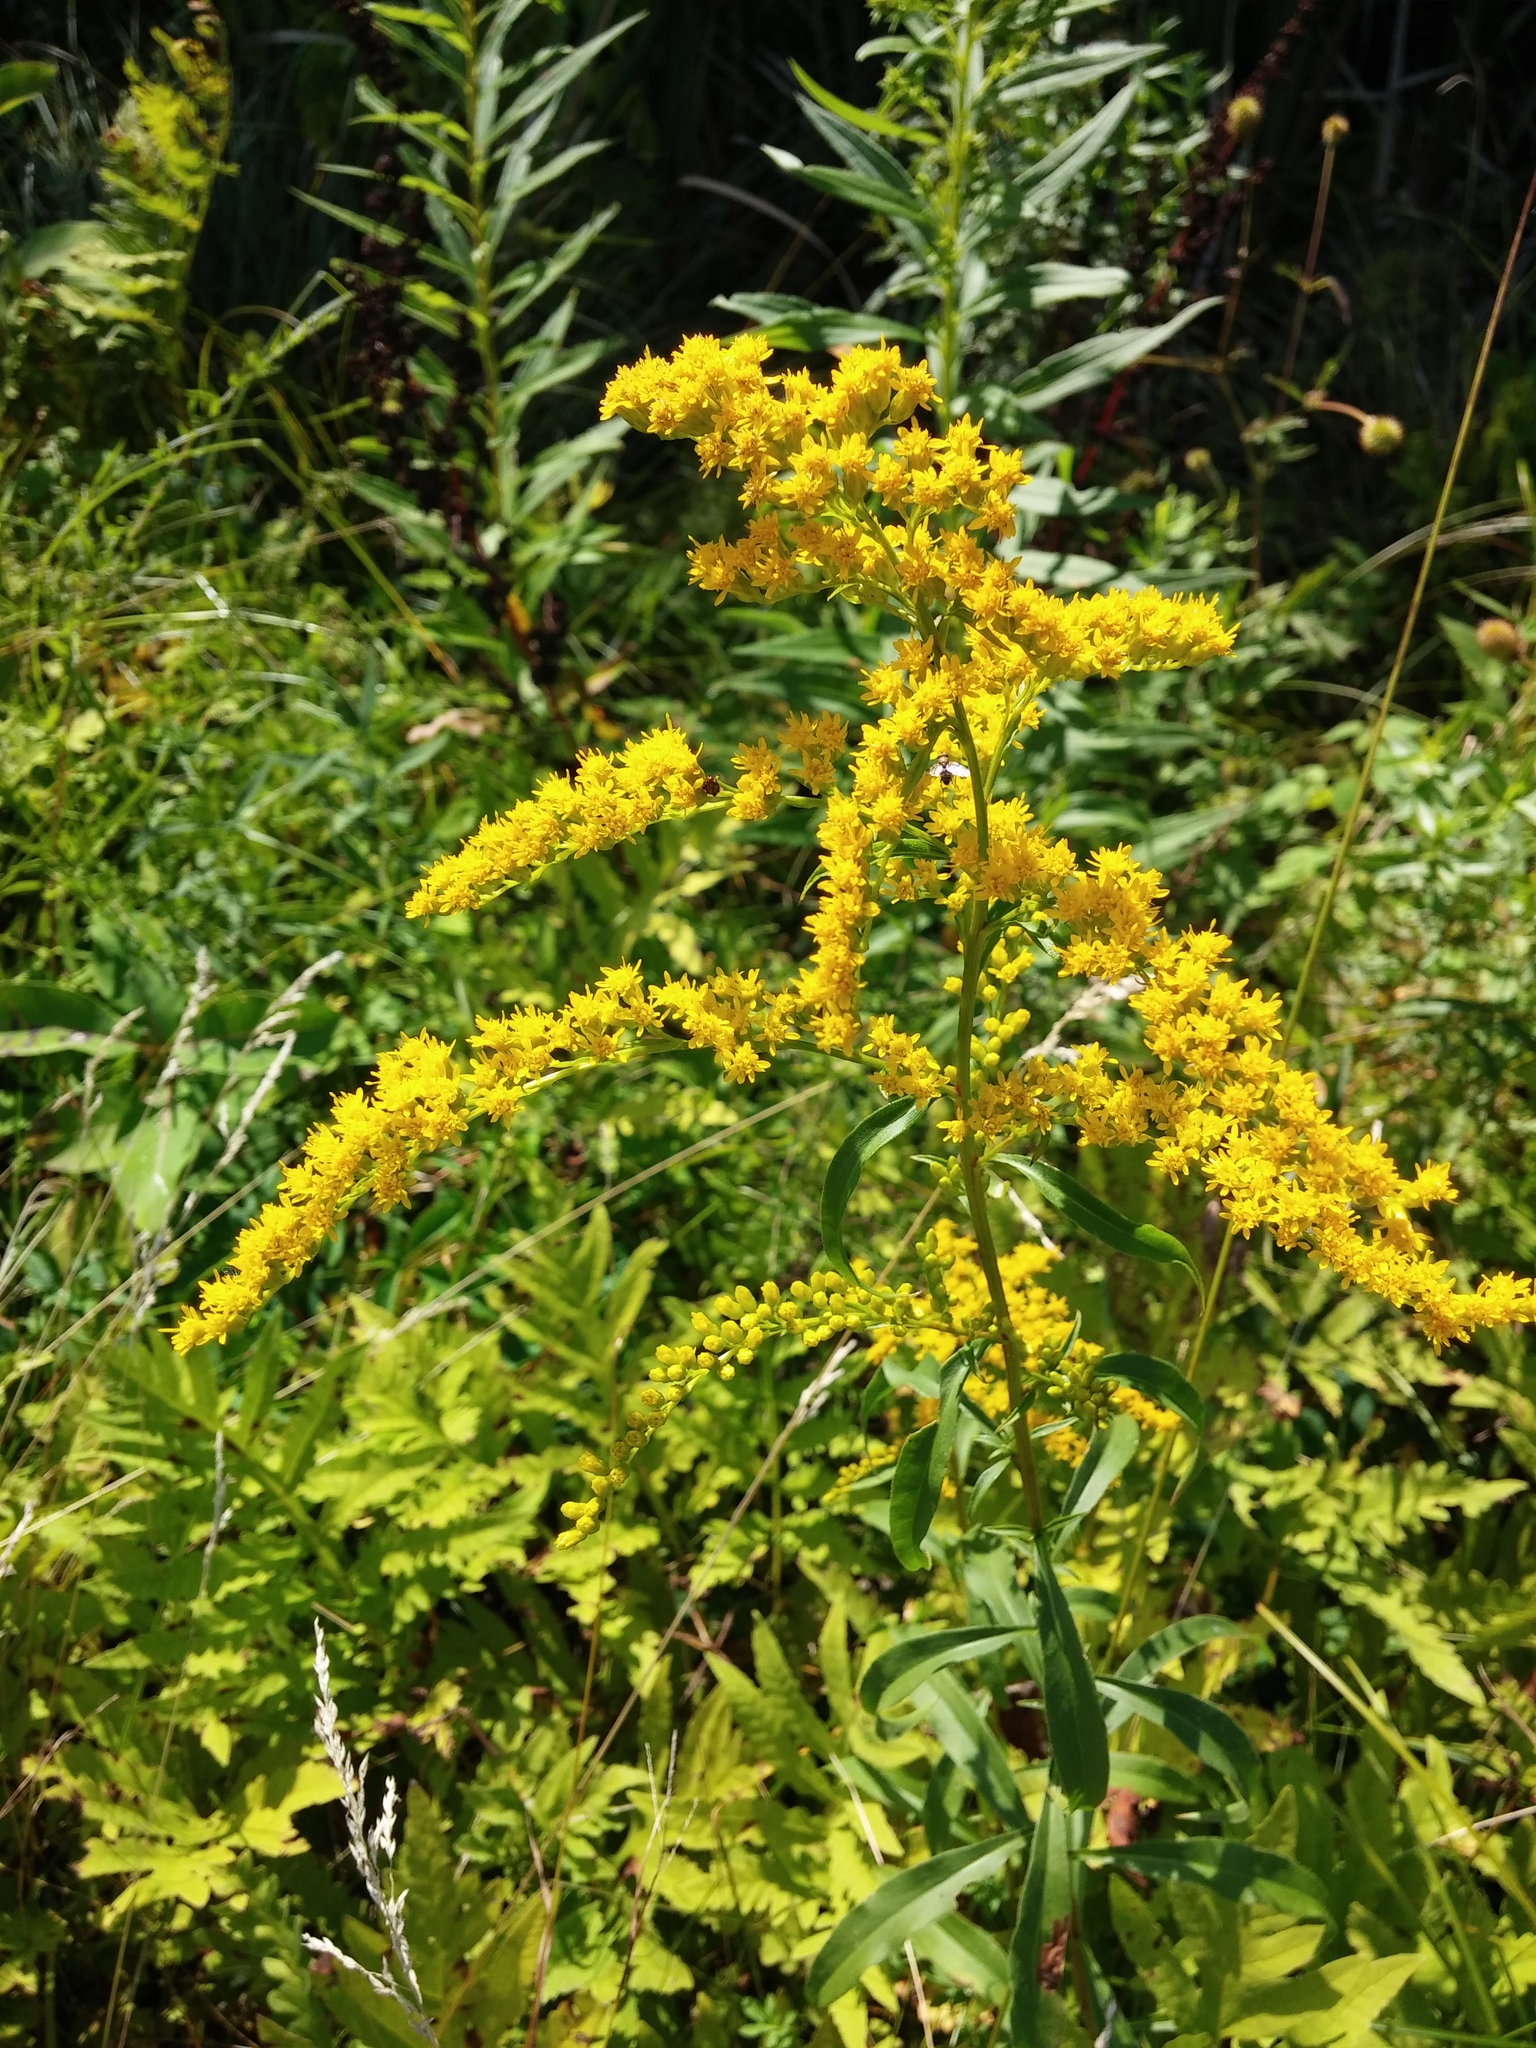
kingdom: Plantae
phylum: Tracheophyta
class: Magnoliopsida
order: Asterales
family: Asteraceae
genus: Solidago
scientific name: Solidago juncea
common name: Early goldenrod
